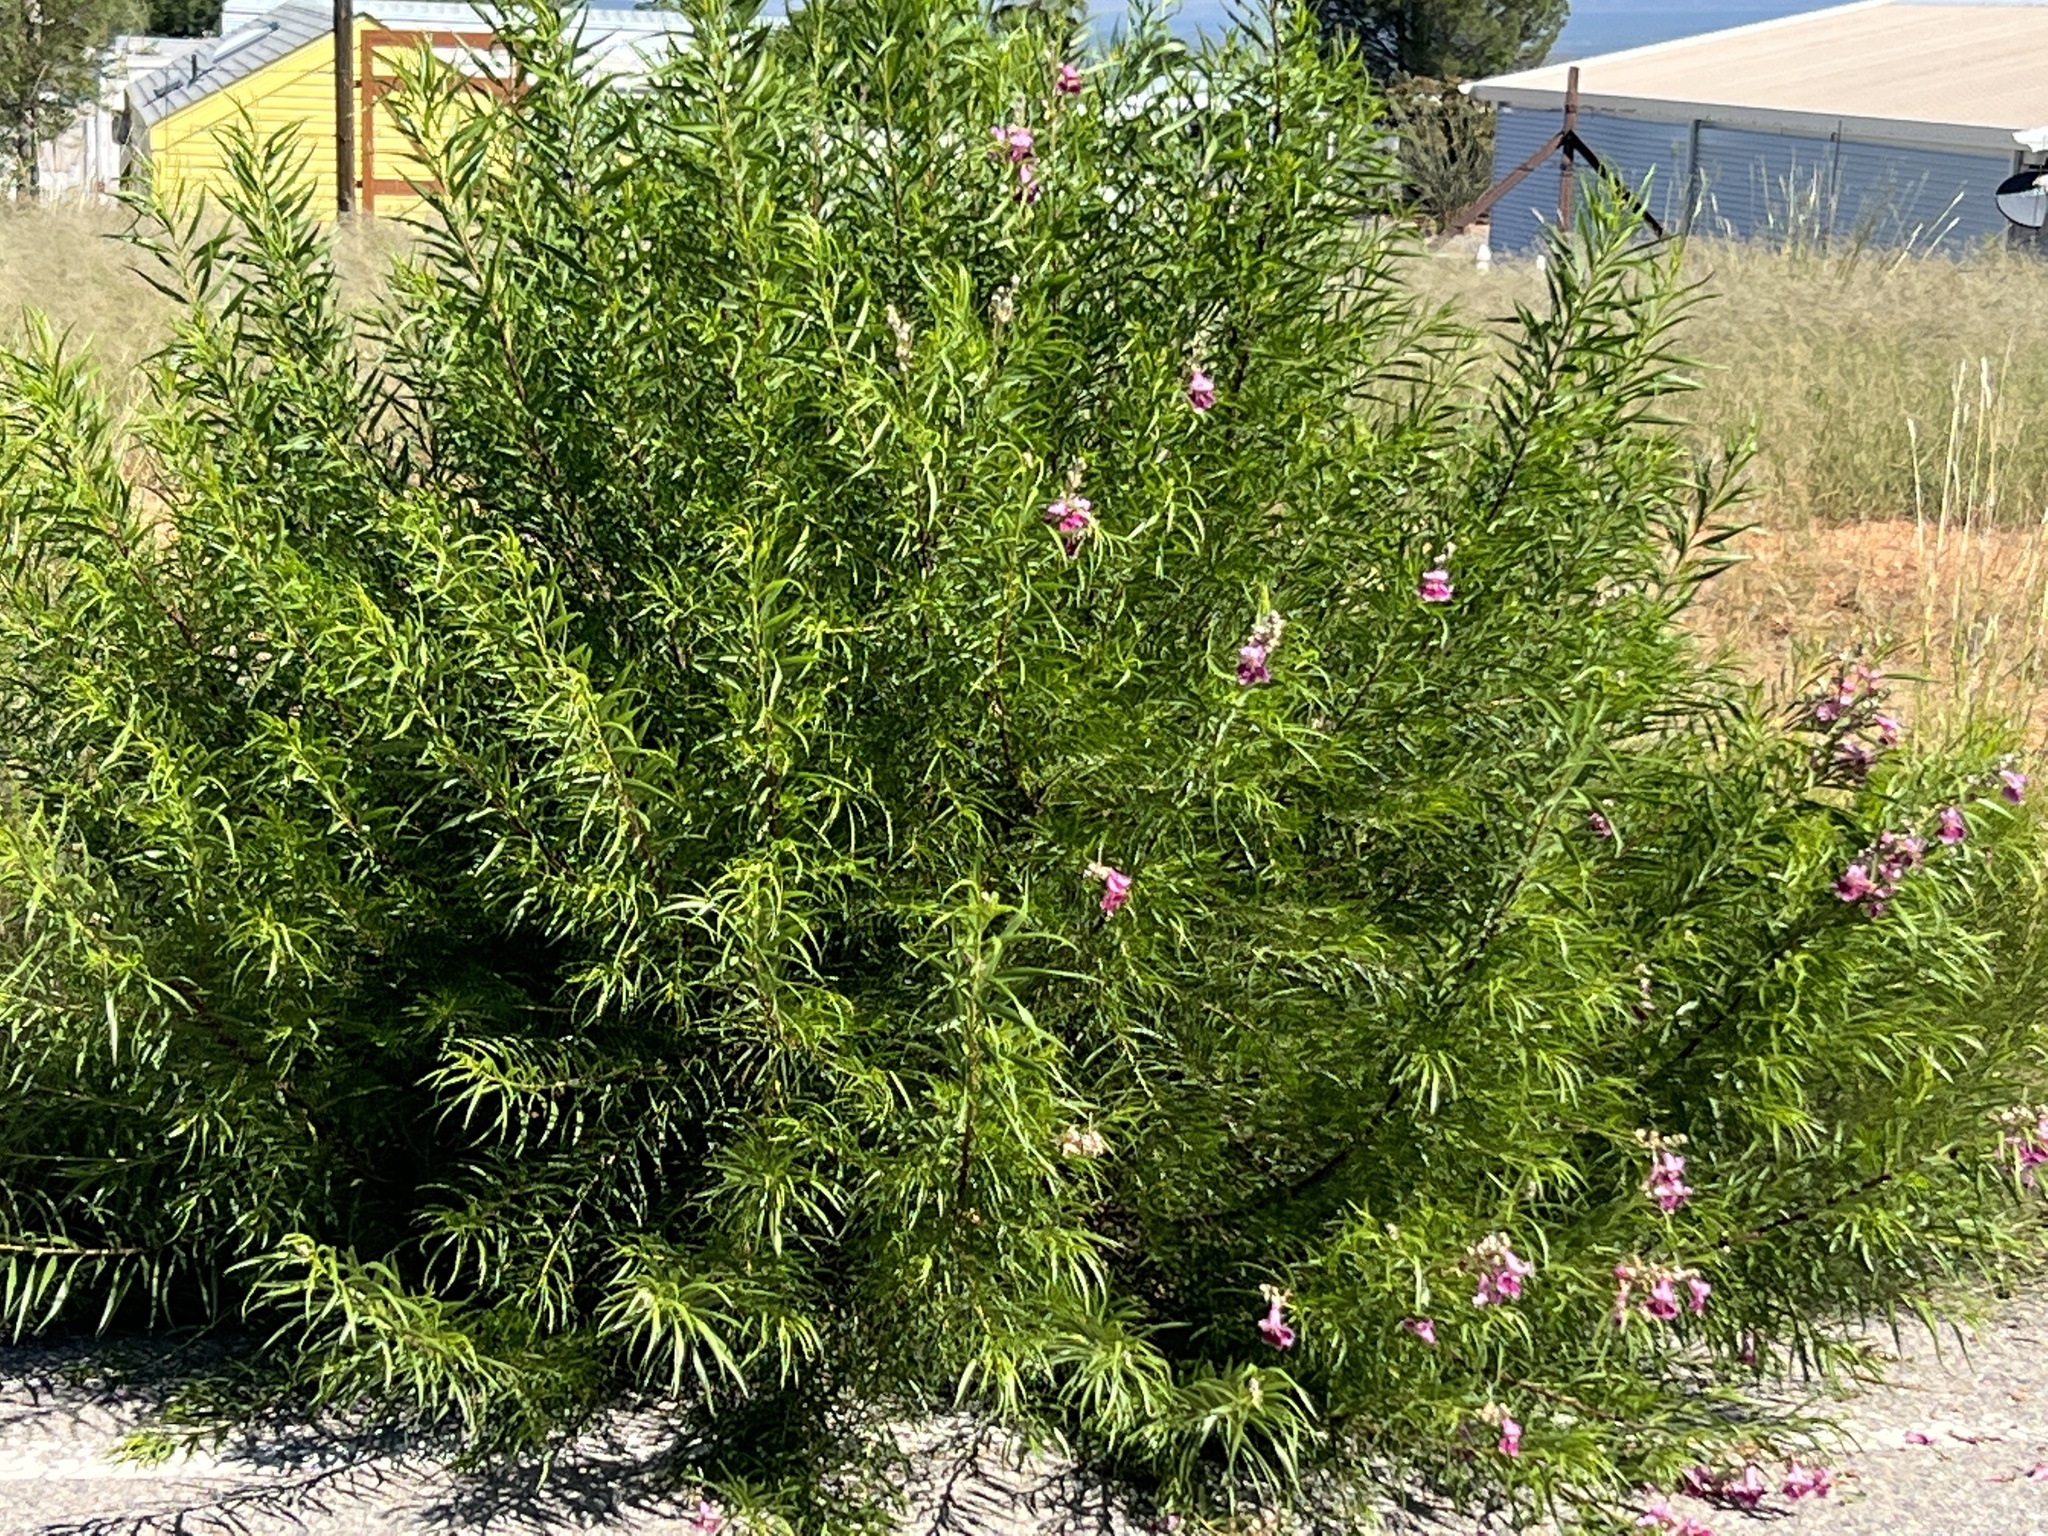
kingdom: Plantae
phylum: Tracheophyta
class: Magnoliopsida
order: Lamiales
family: Bignoniaceae
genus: Chilopsis
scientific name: Chilopsis linearis
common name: Desert-willow
